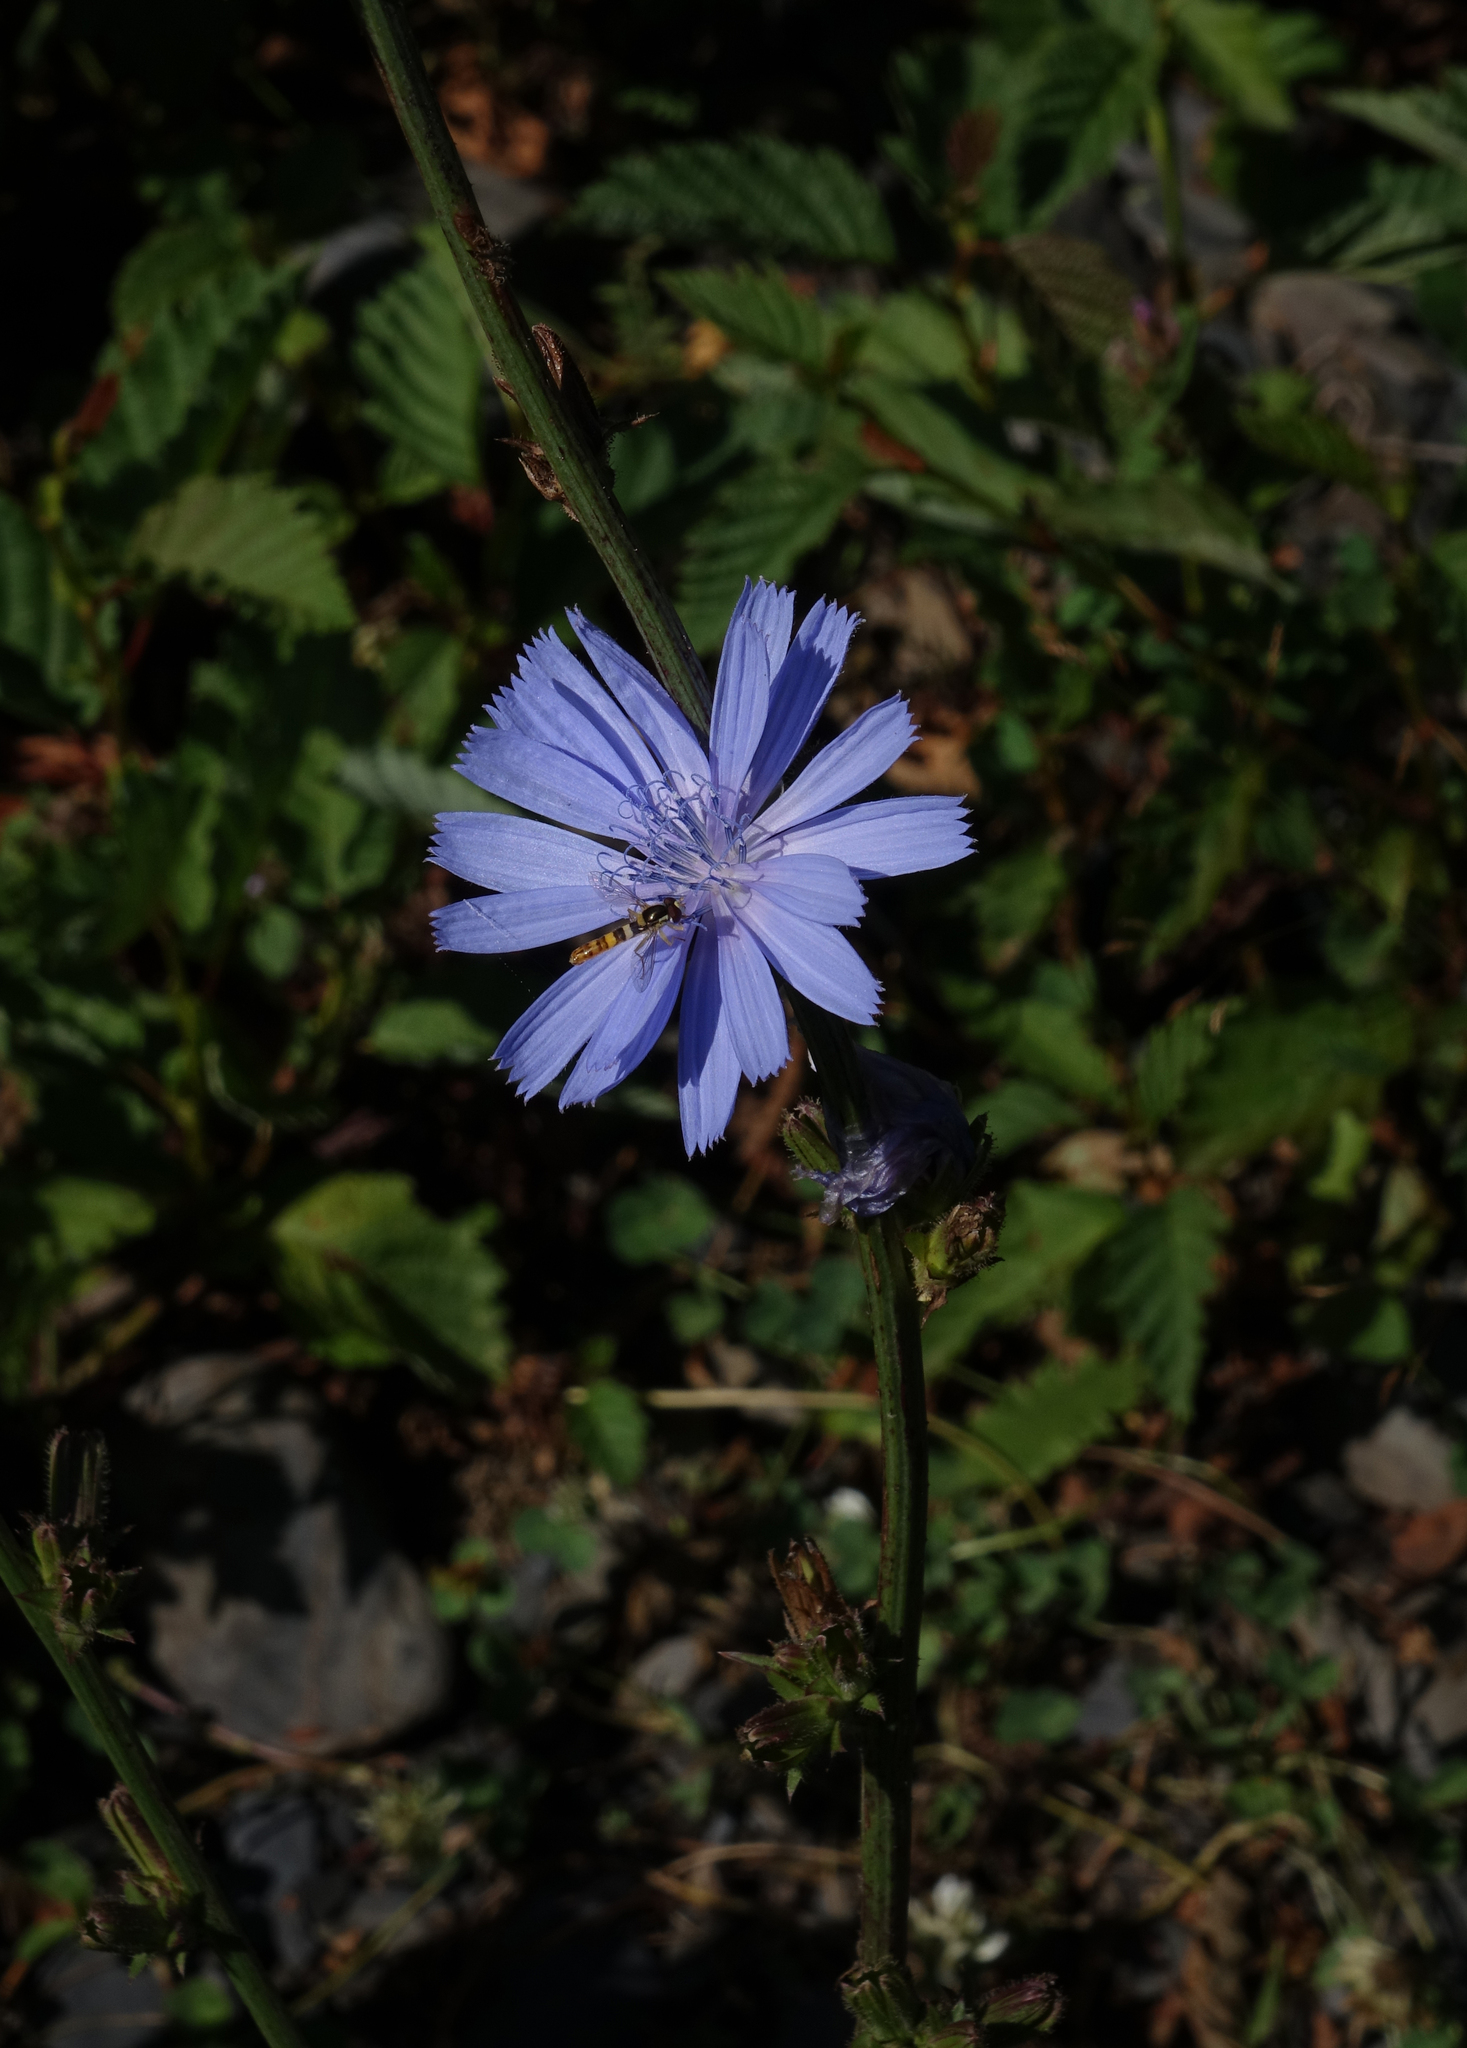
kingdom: Plantae
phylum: Tracheophyta
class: Magnoliopsida
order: Asterales
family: Asteraceae
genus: Cichorium
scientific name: Cichorium intybus
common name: Chicory
